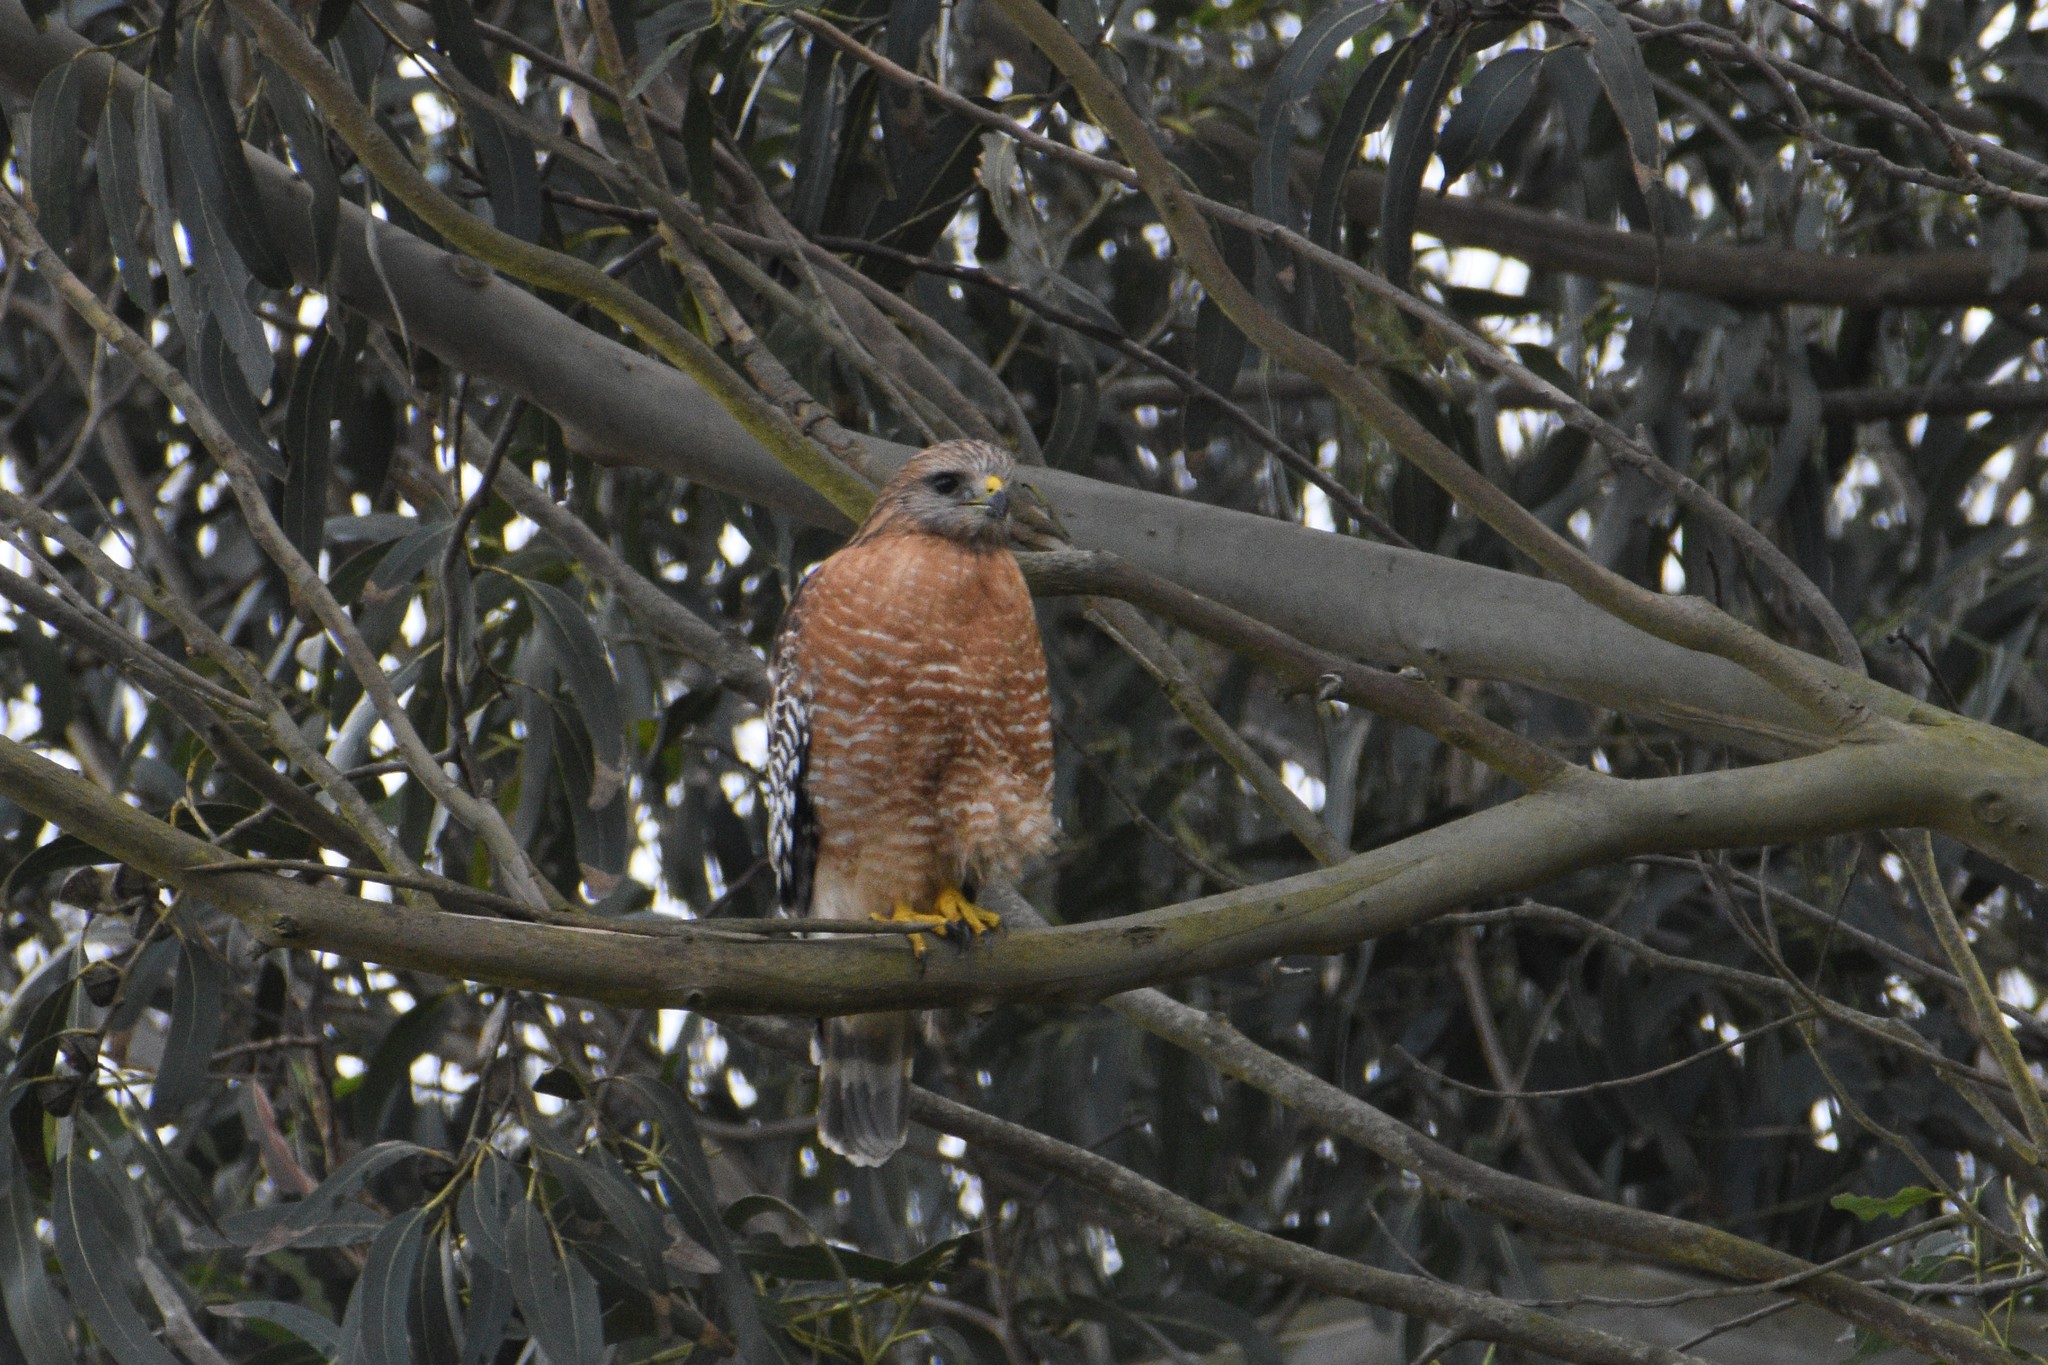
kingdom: Animalia
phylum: Chordata
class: Aves
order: Accipitriformes
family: Accipitridae
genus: Buteo
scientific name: Buteo lineatus
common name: Red-shouldered hawk
